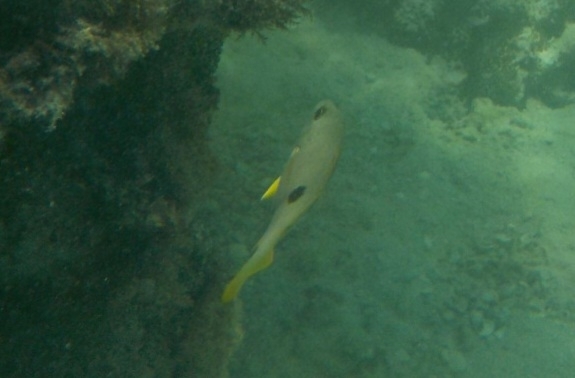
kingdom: Animalia
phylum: Chordata
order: Perciformes
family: Lutjanidae
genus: Lutjanus
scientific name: Lutjanus monostigma
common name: Onespot snapper
